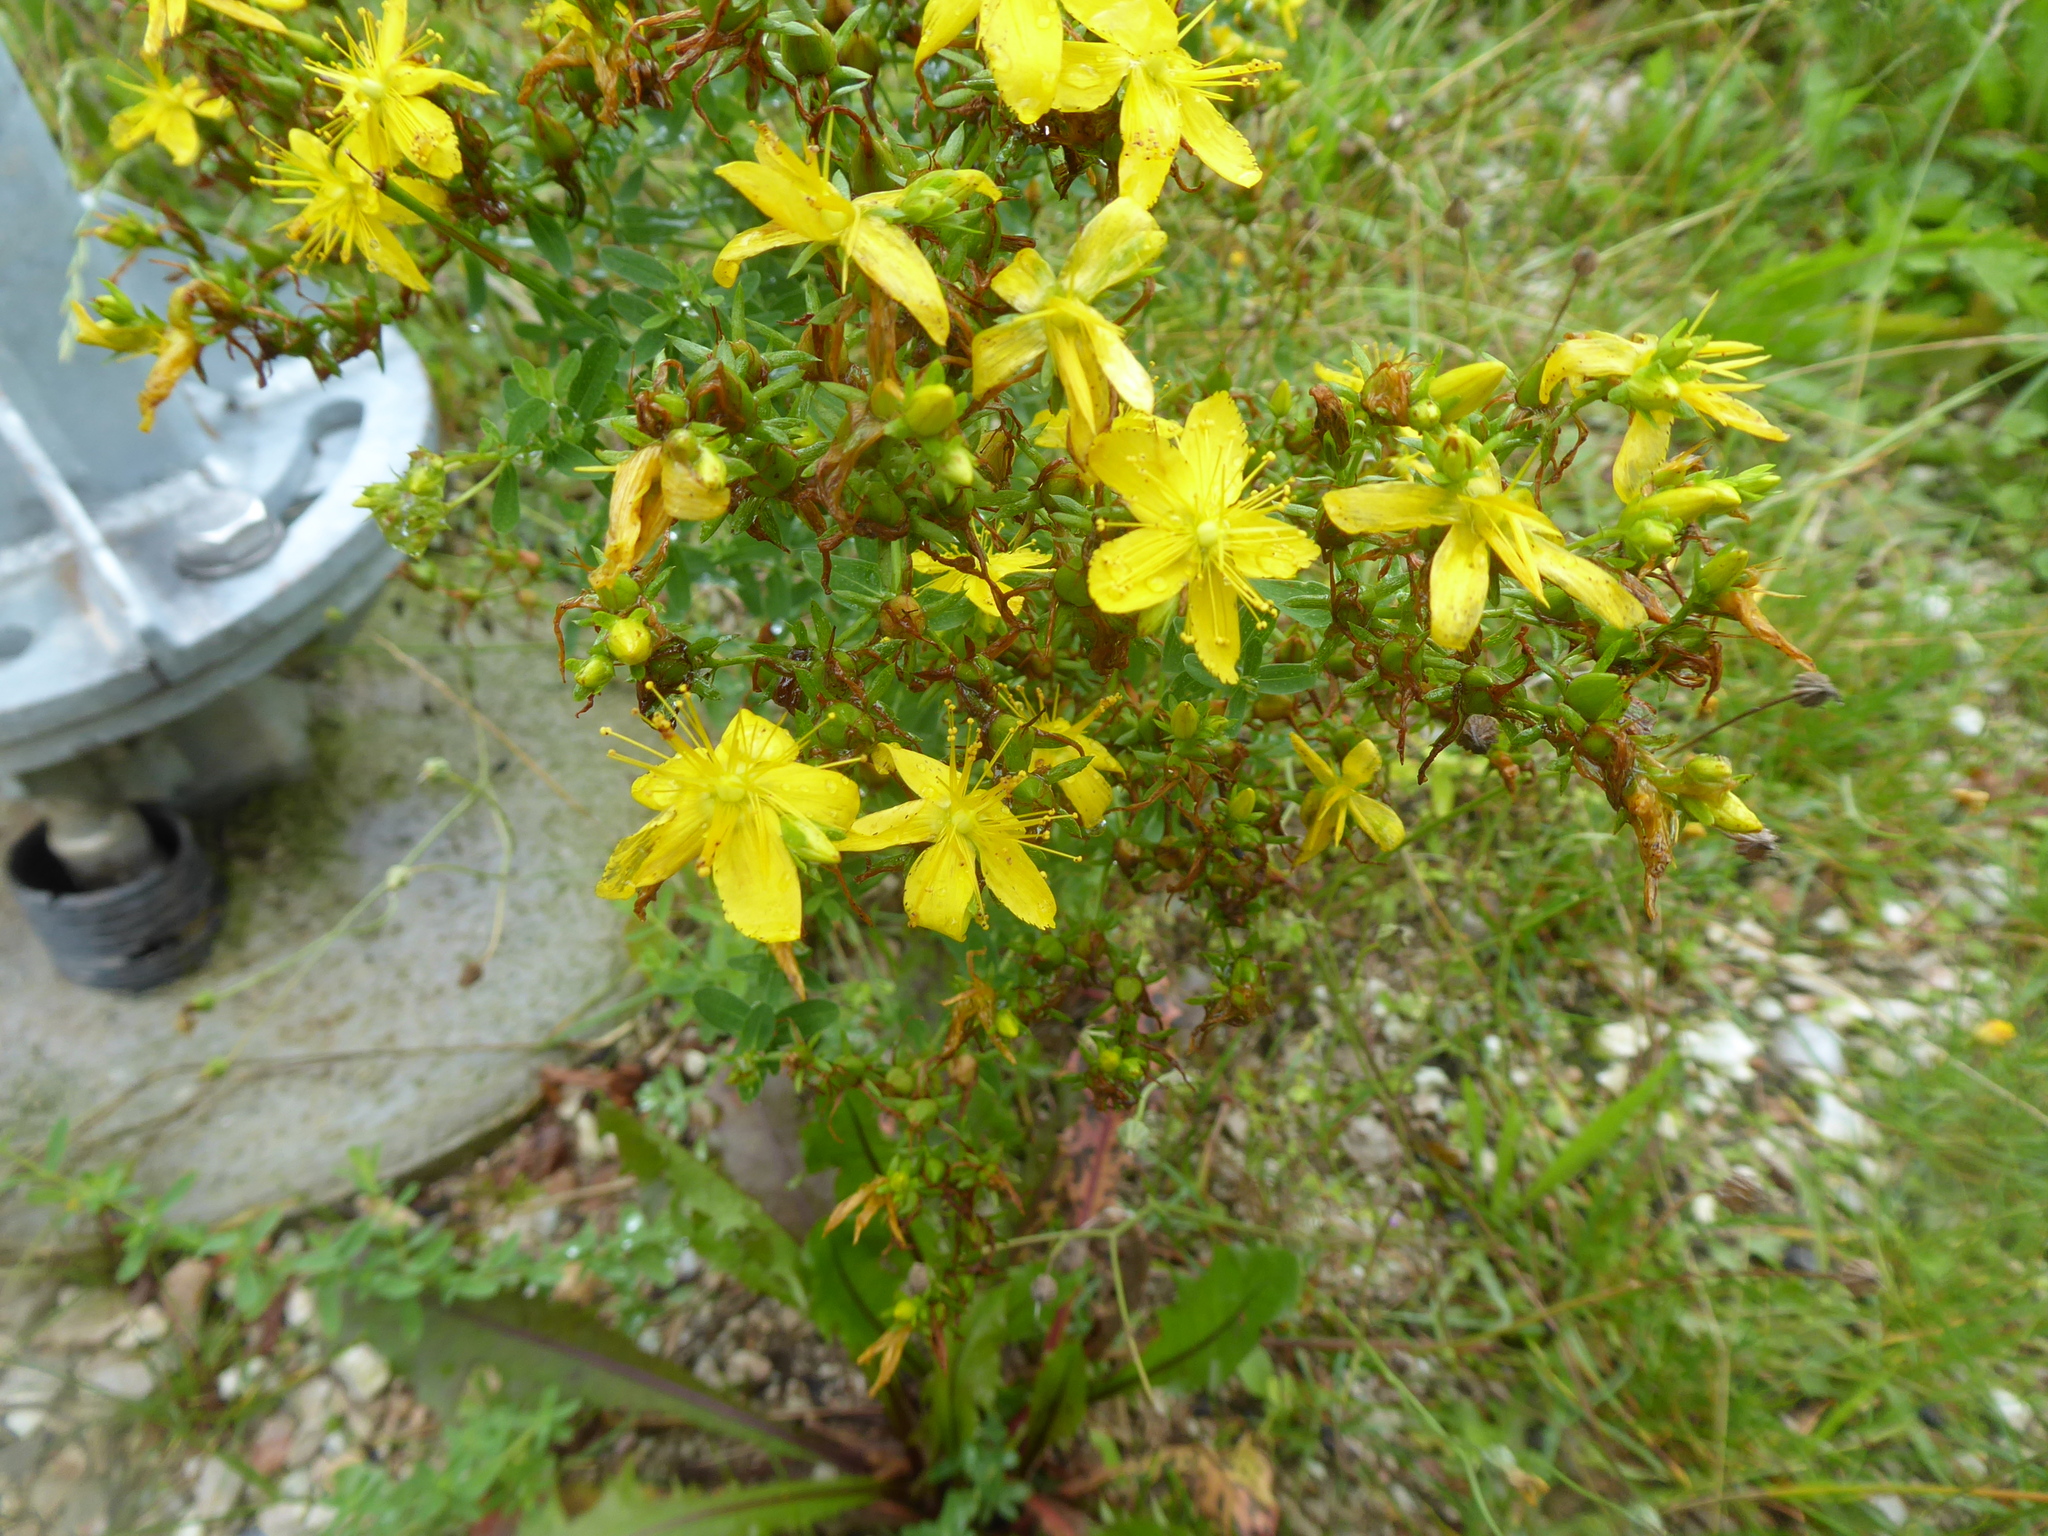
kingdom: Plantae
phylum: Tracheophyta
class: Magnoliopsida
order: Malpighiales
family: Hypericaceae
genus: Hypericum
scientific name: Hypericum perforatum
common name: Common st. johnswort
